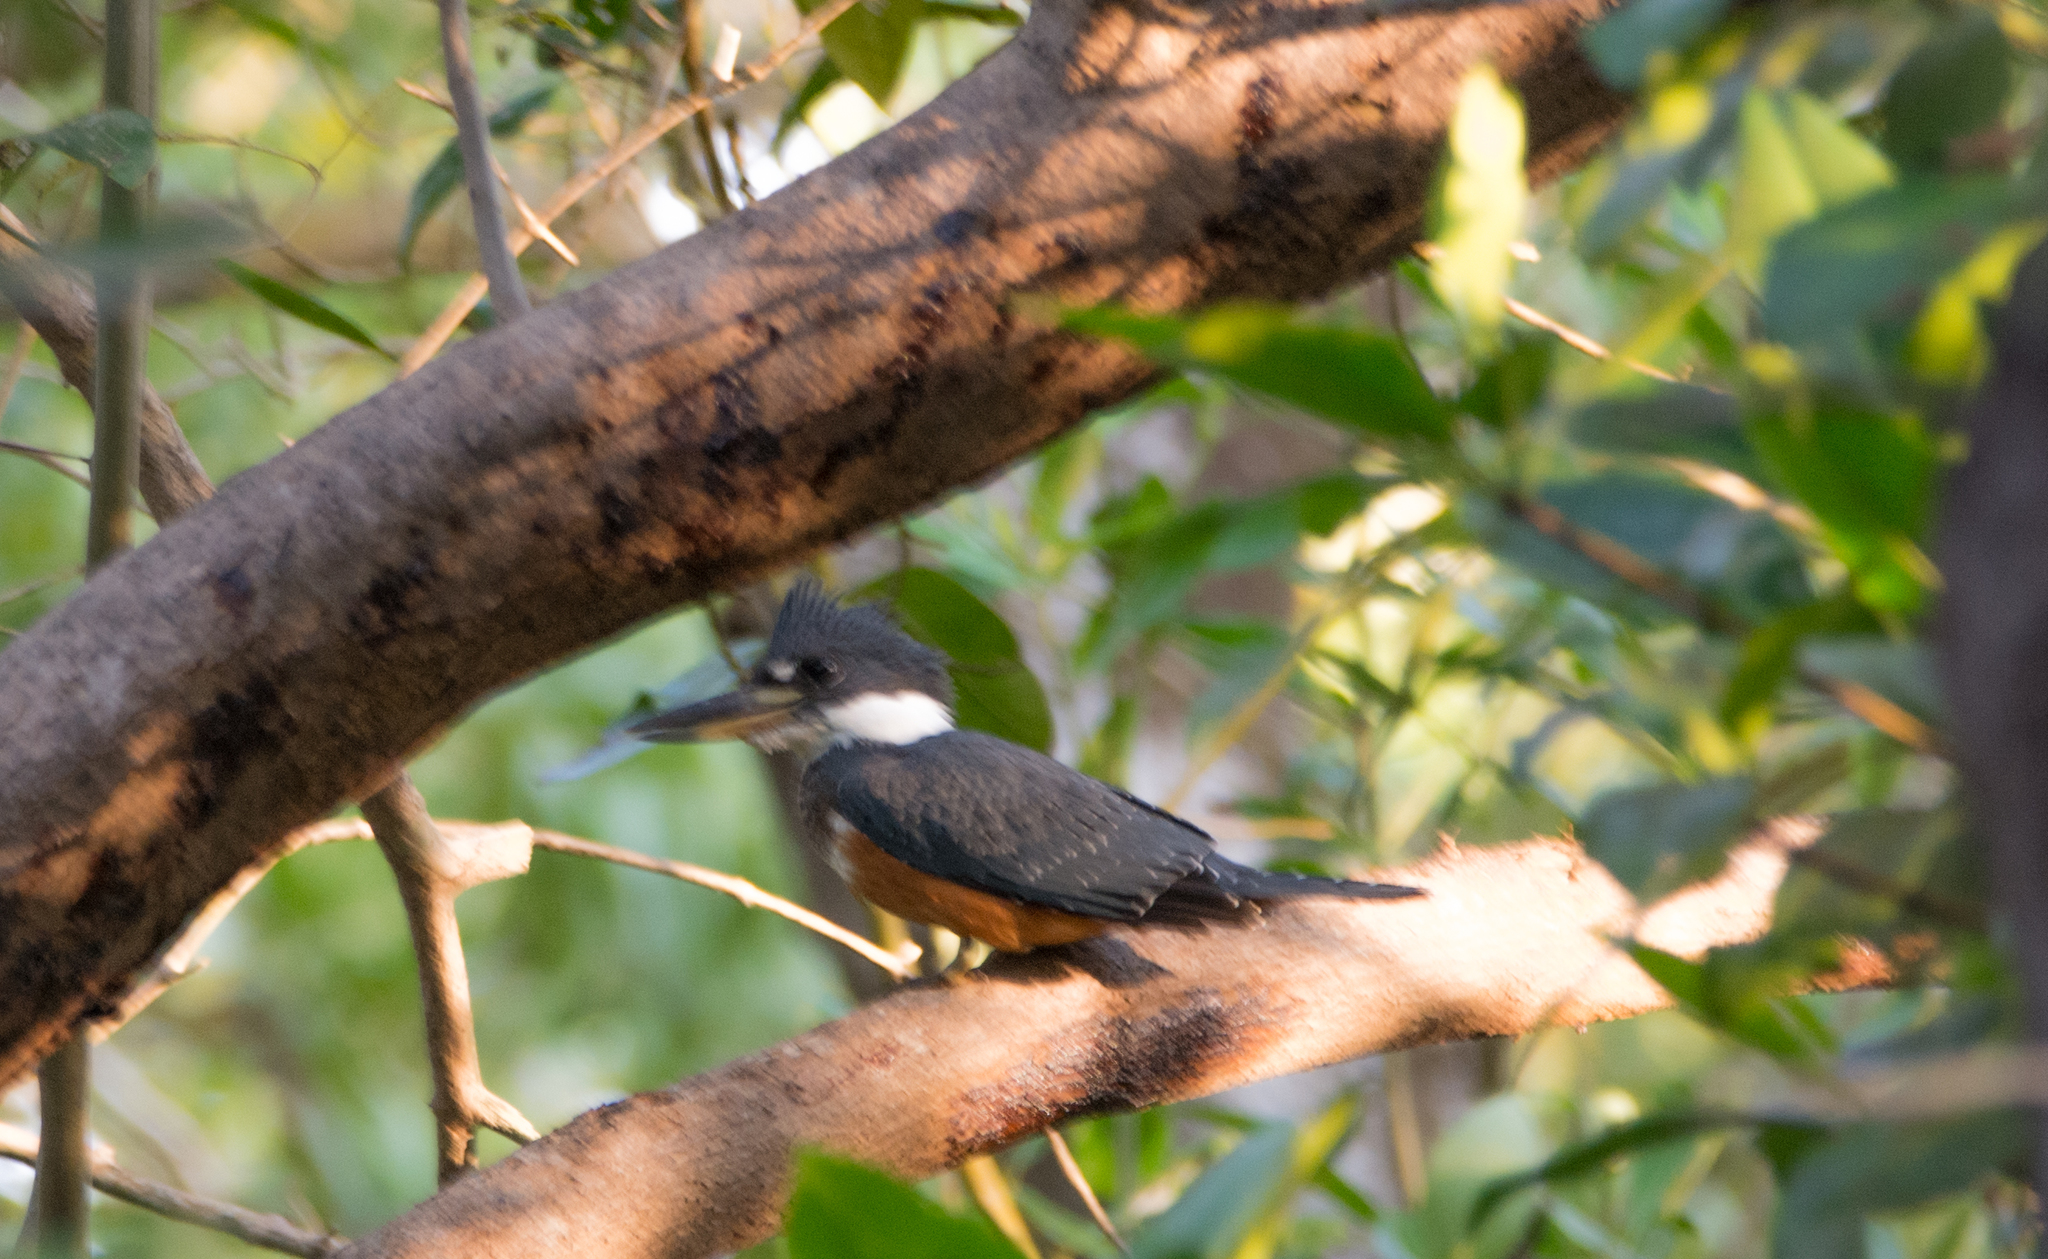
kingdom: Animalia
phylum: Chordata
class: Aves
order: Coraciiformes
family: Alcedinidae
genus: Megaceryle
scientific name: Megaceryle torquata
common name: Ringed kingfisher
